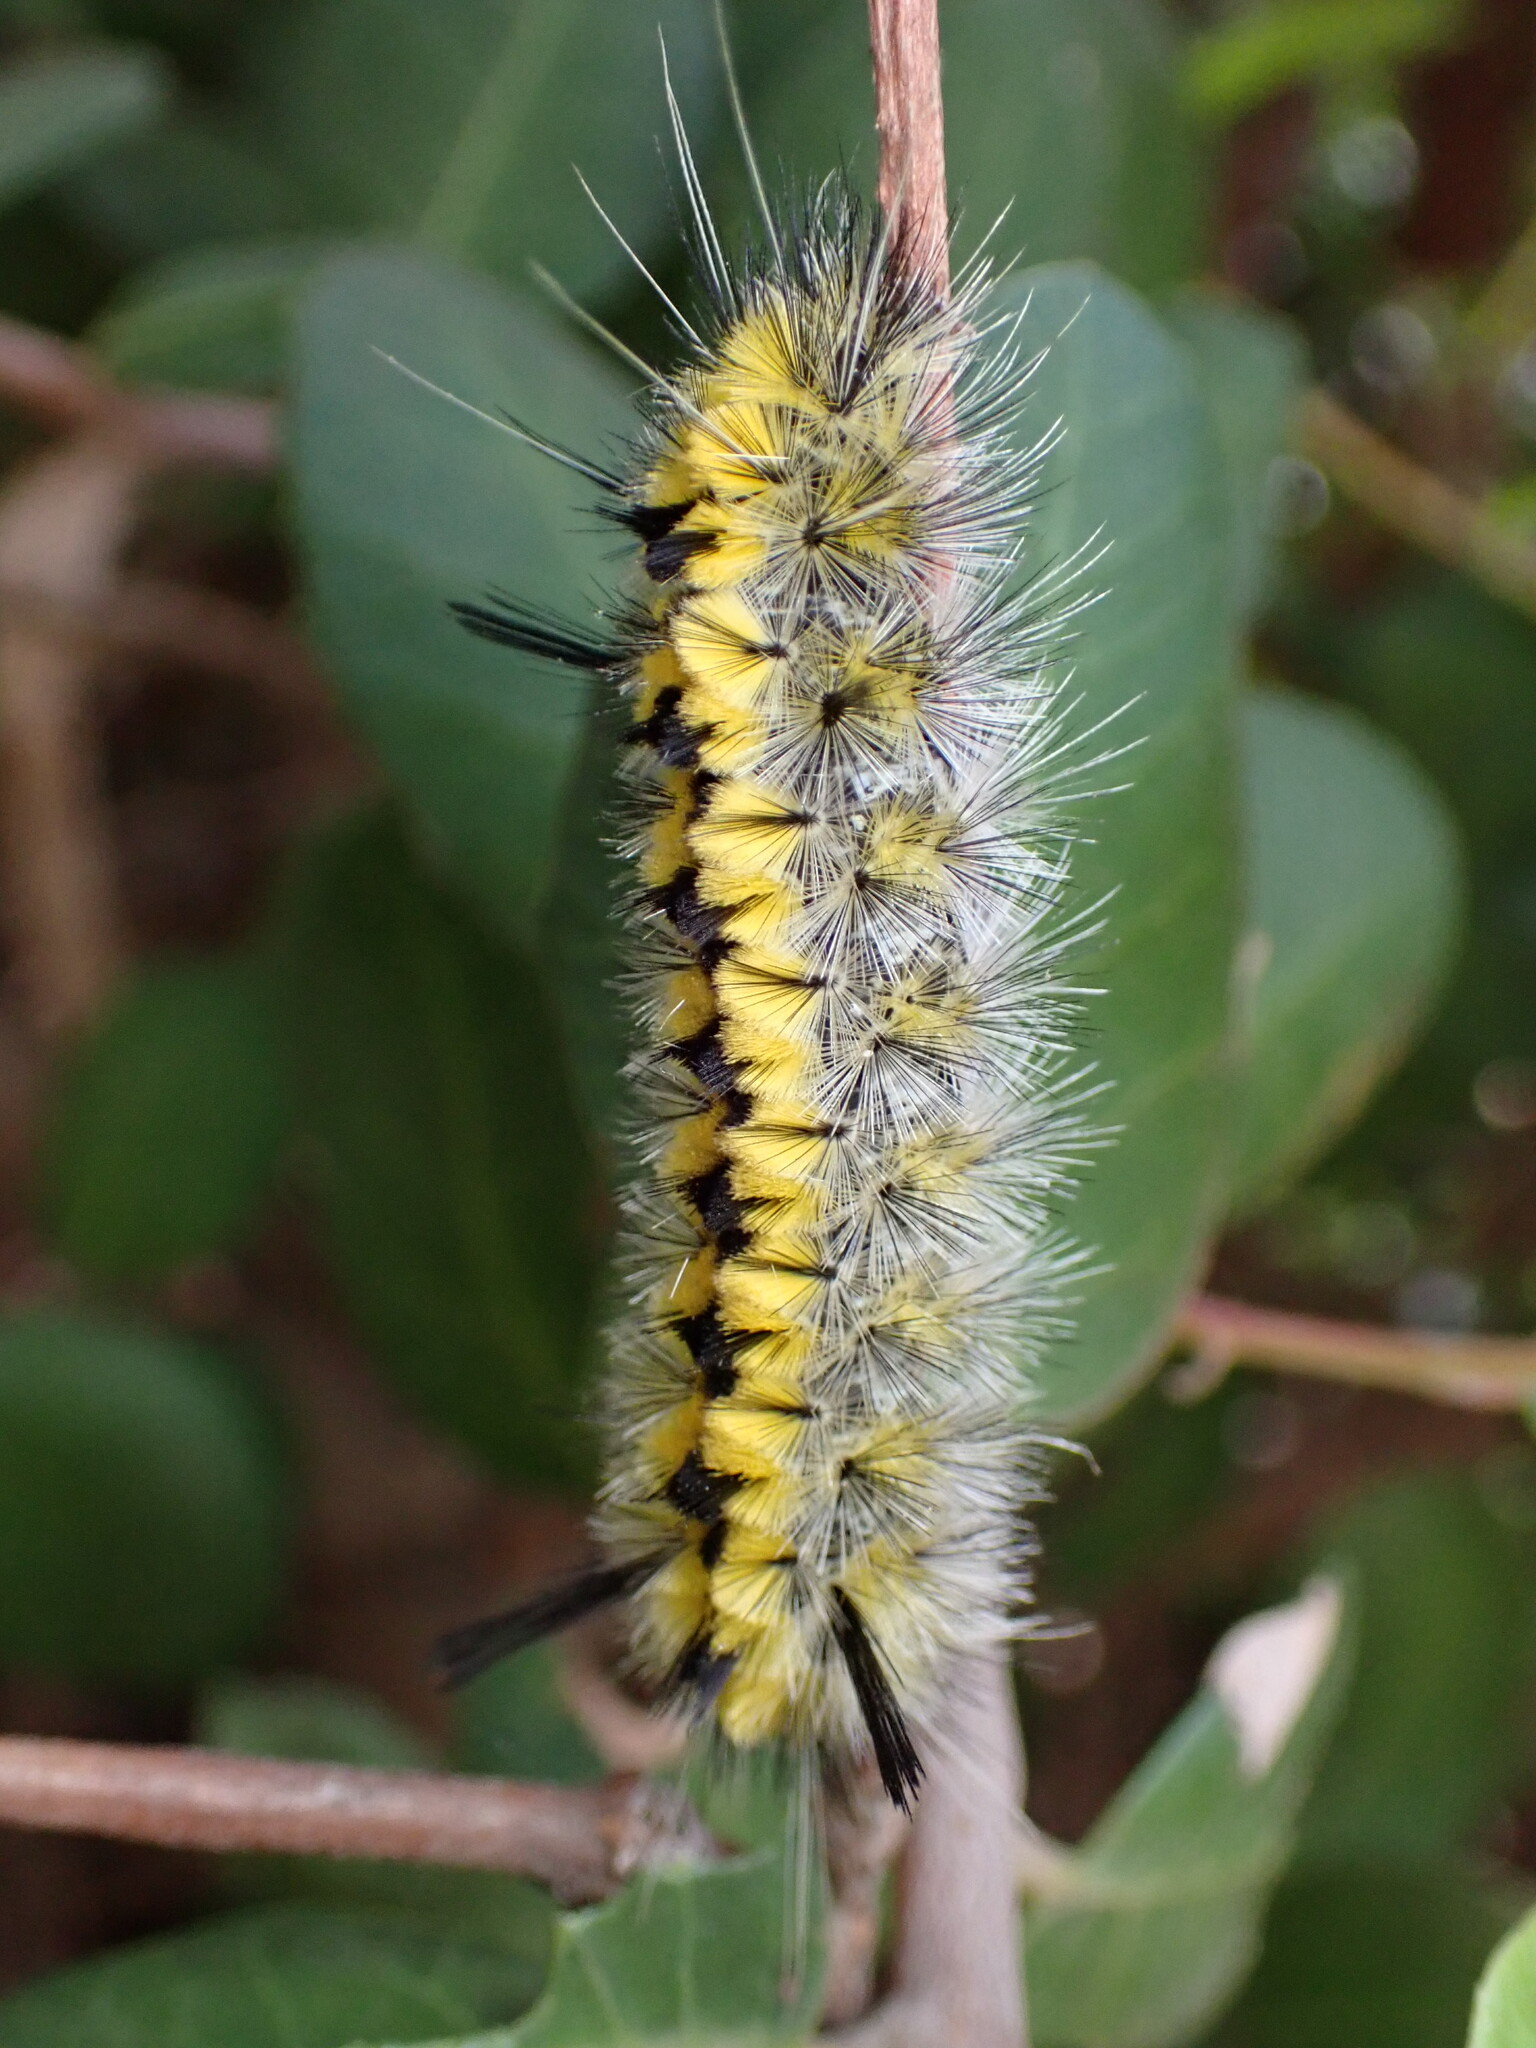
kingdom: Animalia
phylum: Arthropoda
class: Insecta
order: Lepidoptera
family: Erebidae
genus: Lophocampa
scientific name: Lophocampa indistincta
